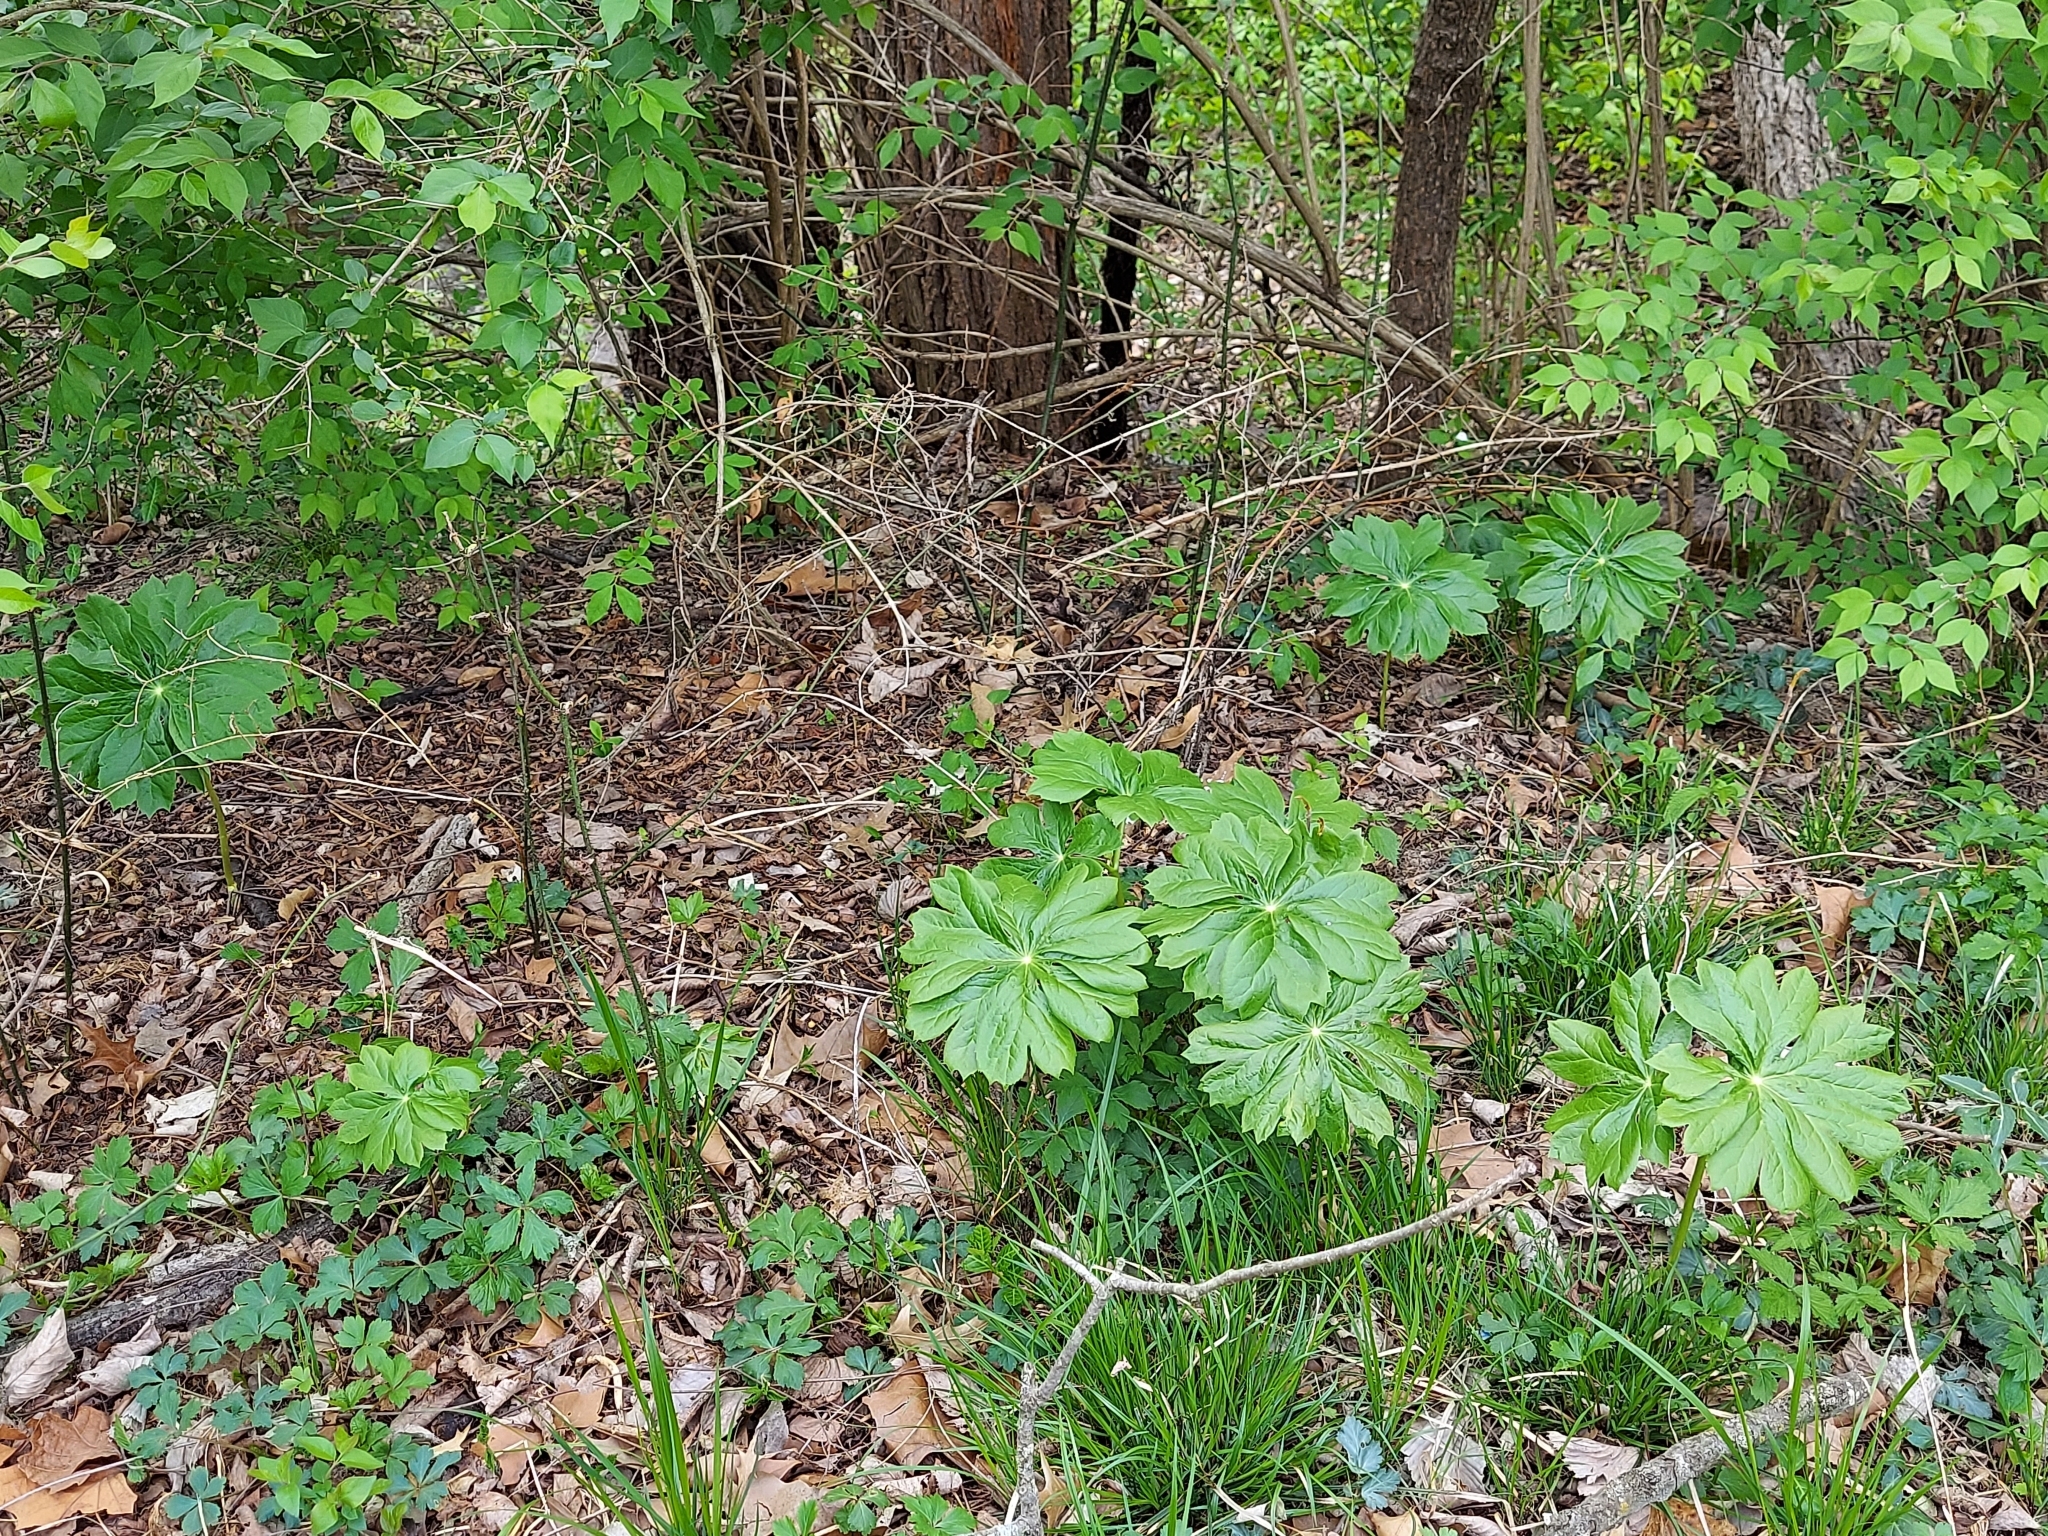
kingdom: Plantae
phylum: Tracheophyta
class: Magnoliopsida
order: Ranunculales
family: Berberidaceae
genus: Podophyllum
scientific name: Podophyllum peltatum
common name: Wild mandrake
